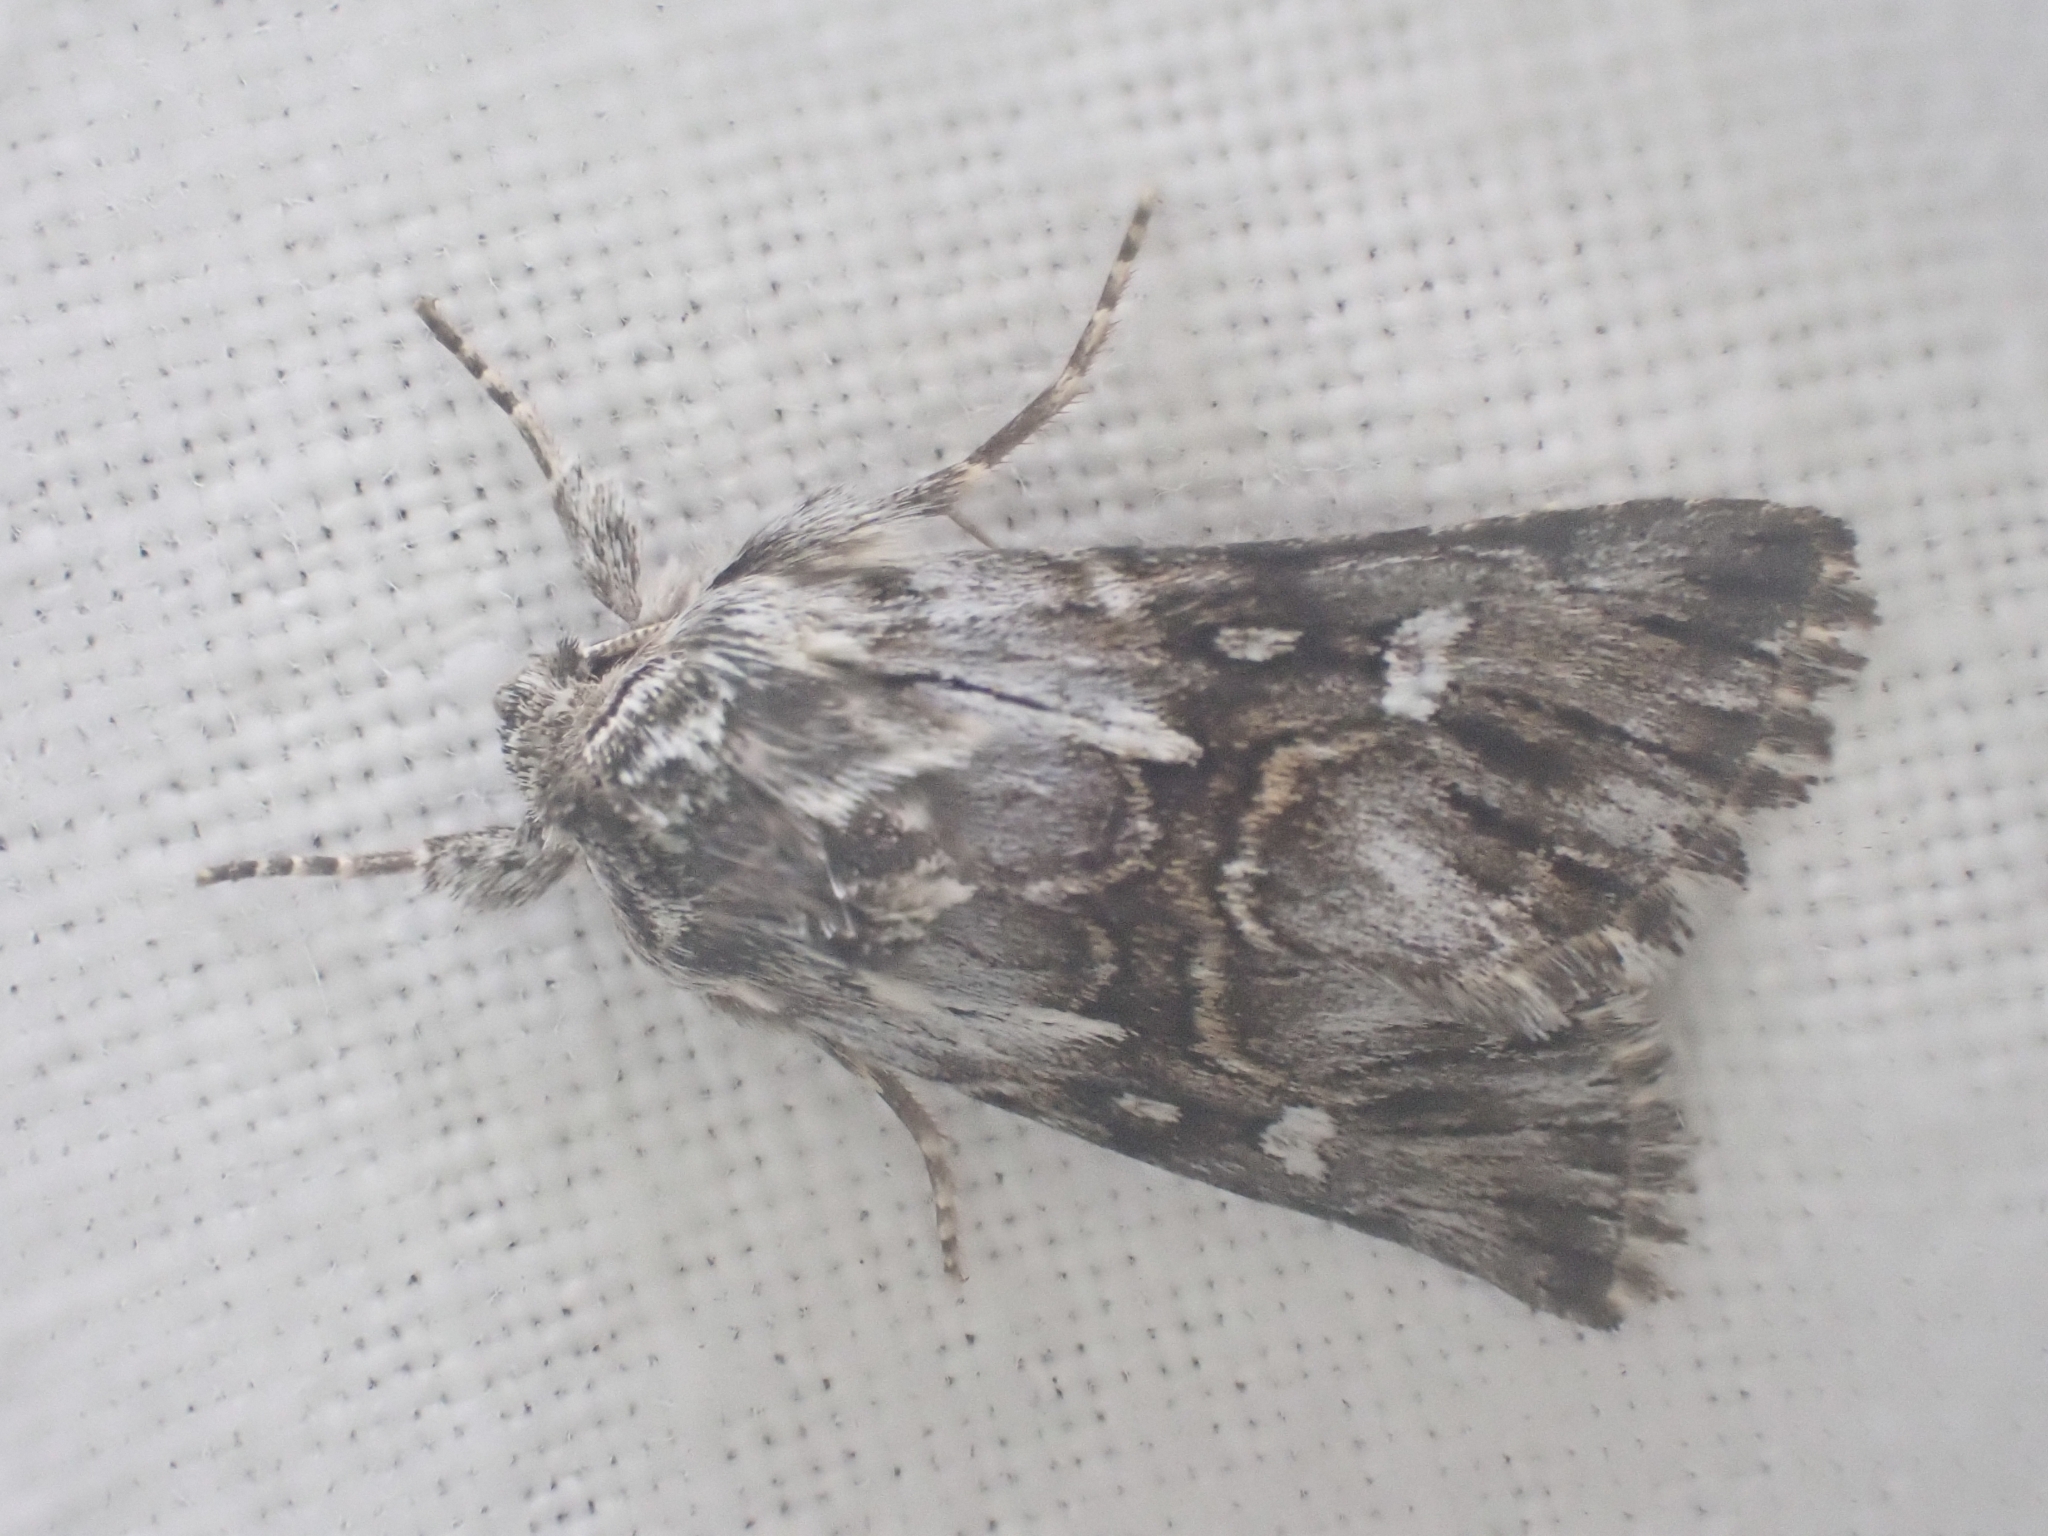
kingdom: Animalia
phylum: Arthropoda
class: Insecta
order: Lepidoptera
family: Noctuidae
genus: Calophasia
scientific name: Calophasia lunula
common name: Toadflax brocade
